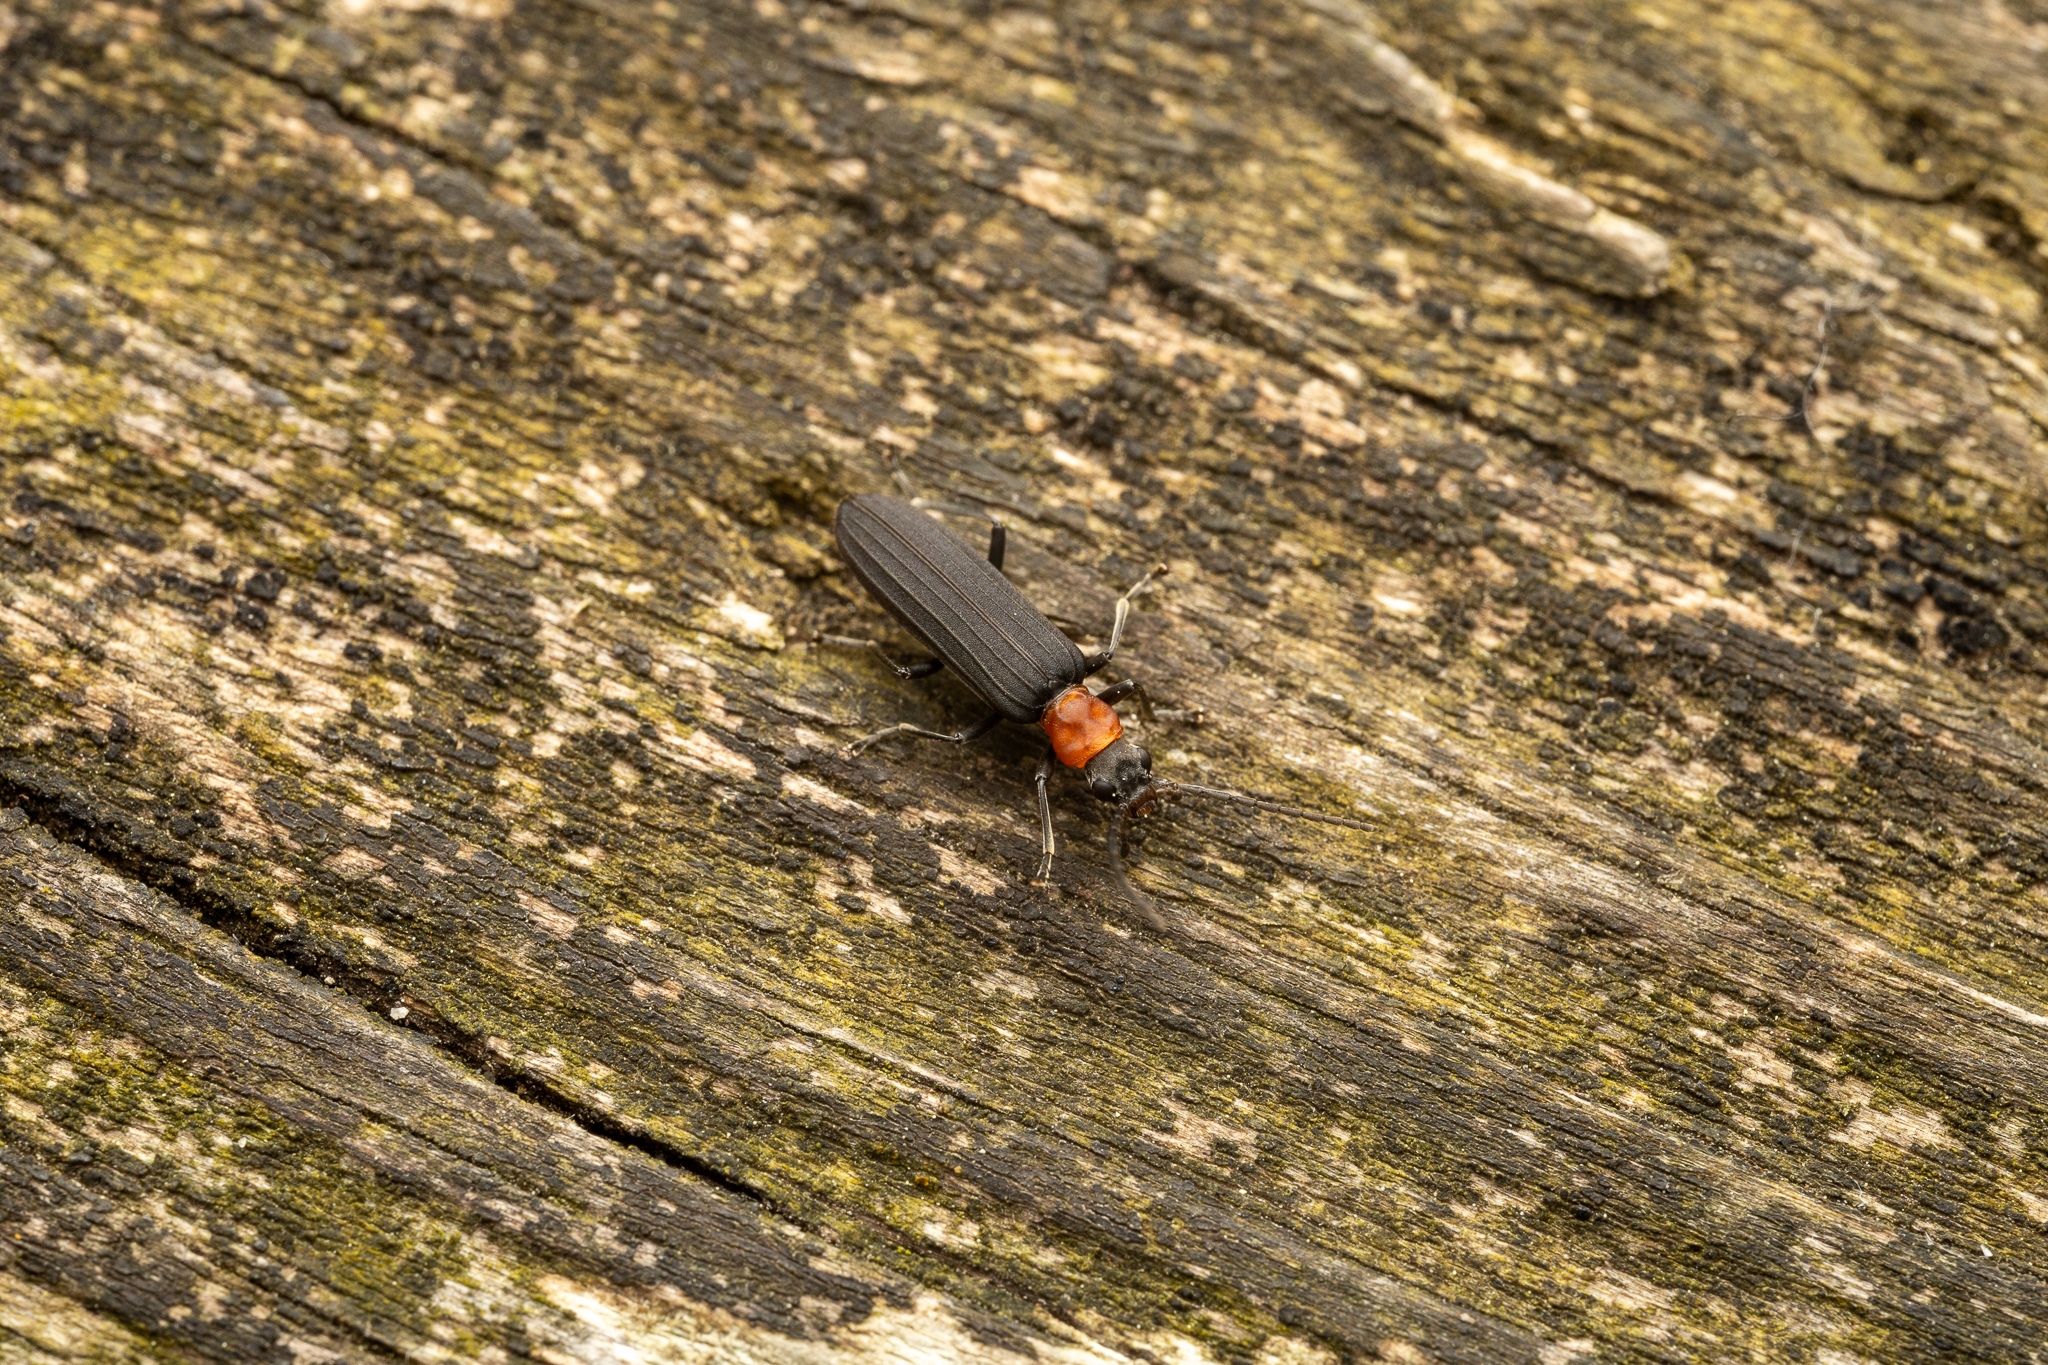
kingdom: Animalia
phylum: Arthropoda
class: Insecta
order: Coleoptera
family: Oedemeridae
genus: Ischnomera
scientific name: Ischnomera
